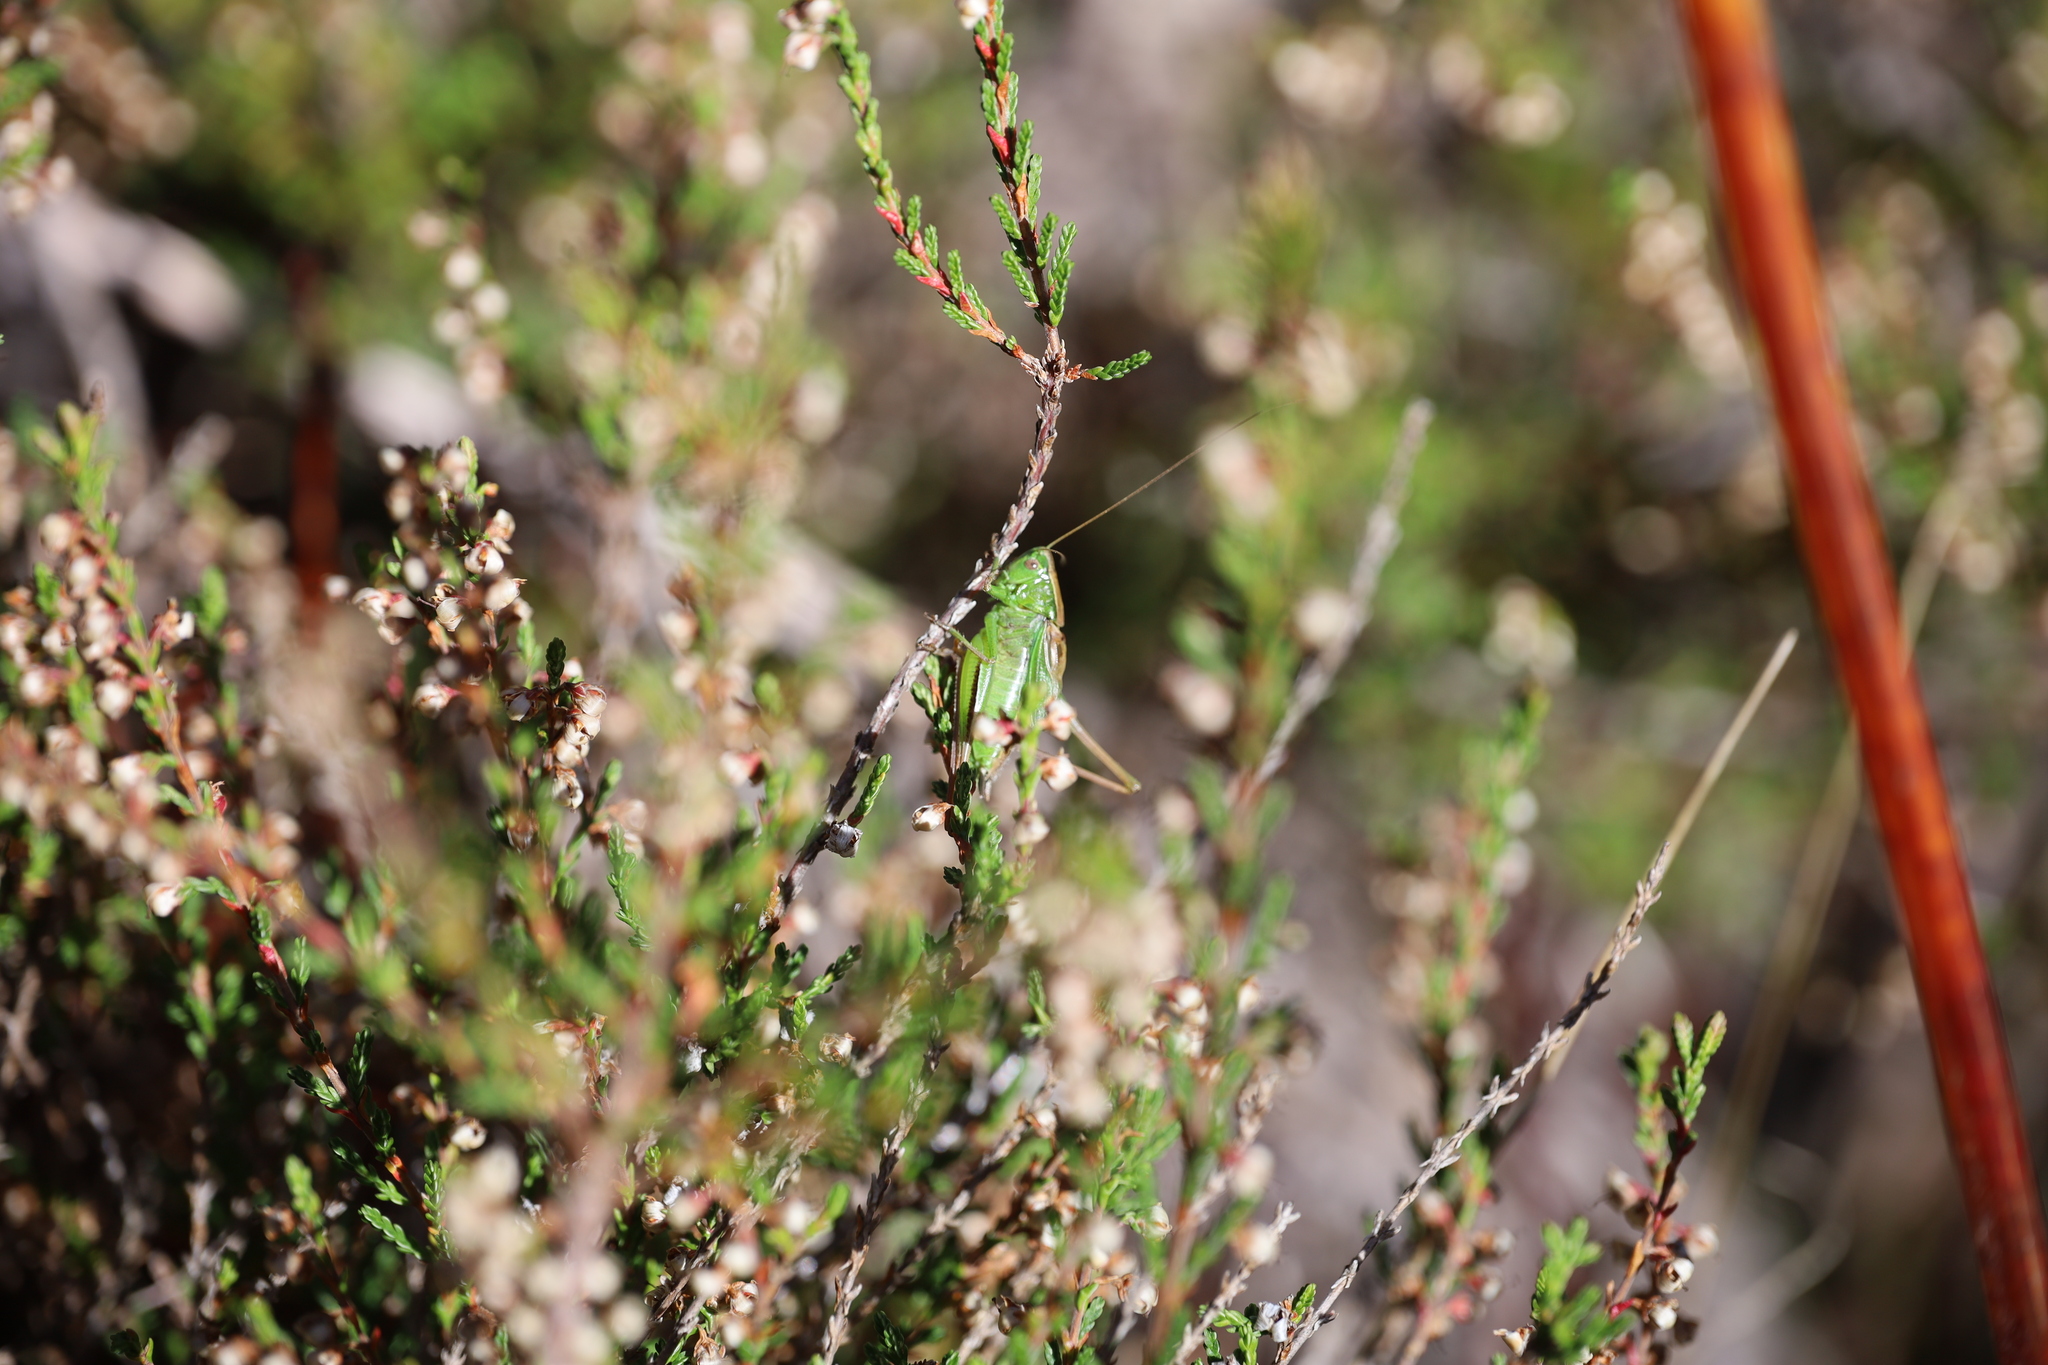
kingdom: Animalia
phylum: Arthropoda
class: Insecta
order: Orthoptera
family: Tettigoniidae
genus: Bicolorana
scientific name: Bicolorana bicolor
